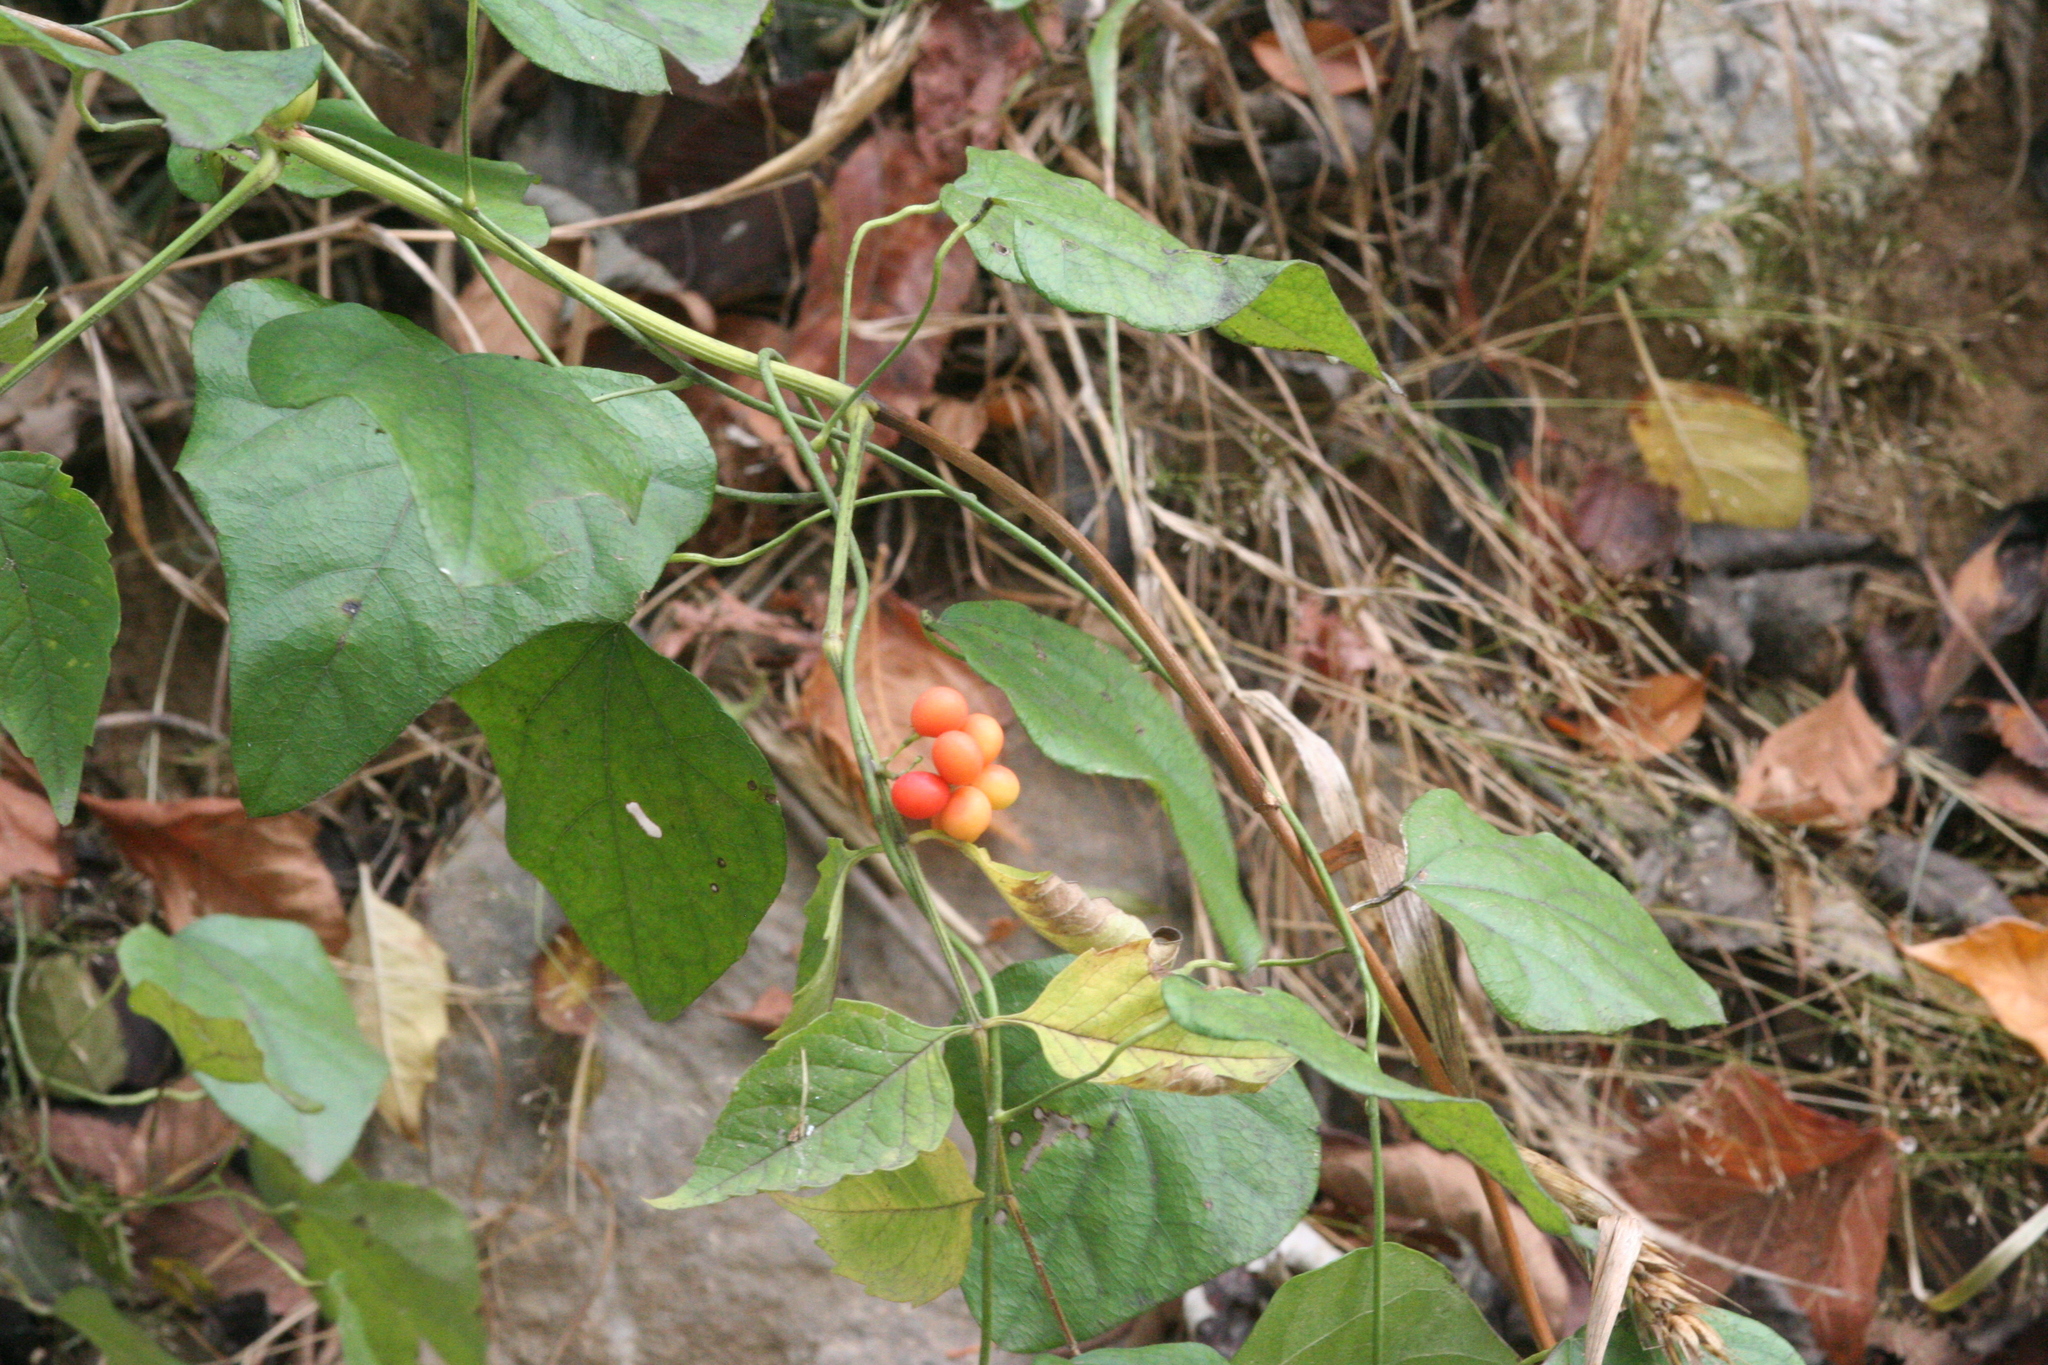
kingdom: Plantae
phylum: Tracheophyta
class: Magnoliopsida
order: Ranunculales
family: Menispermaceae
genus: Cocculus
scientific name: Cocculus carolinus
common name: Carolina moonseed
